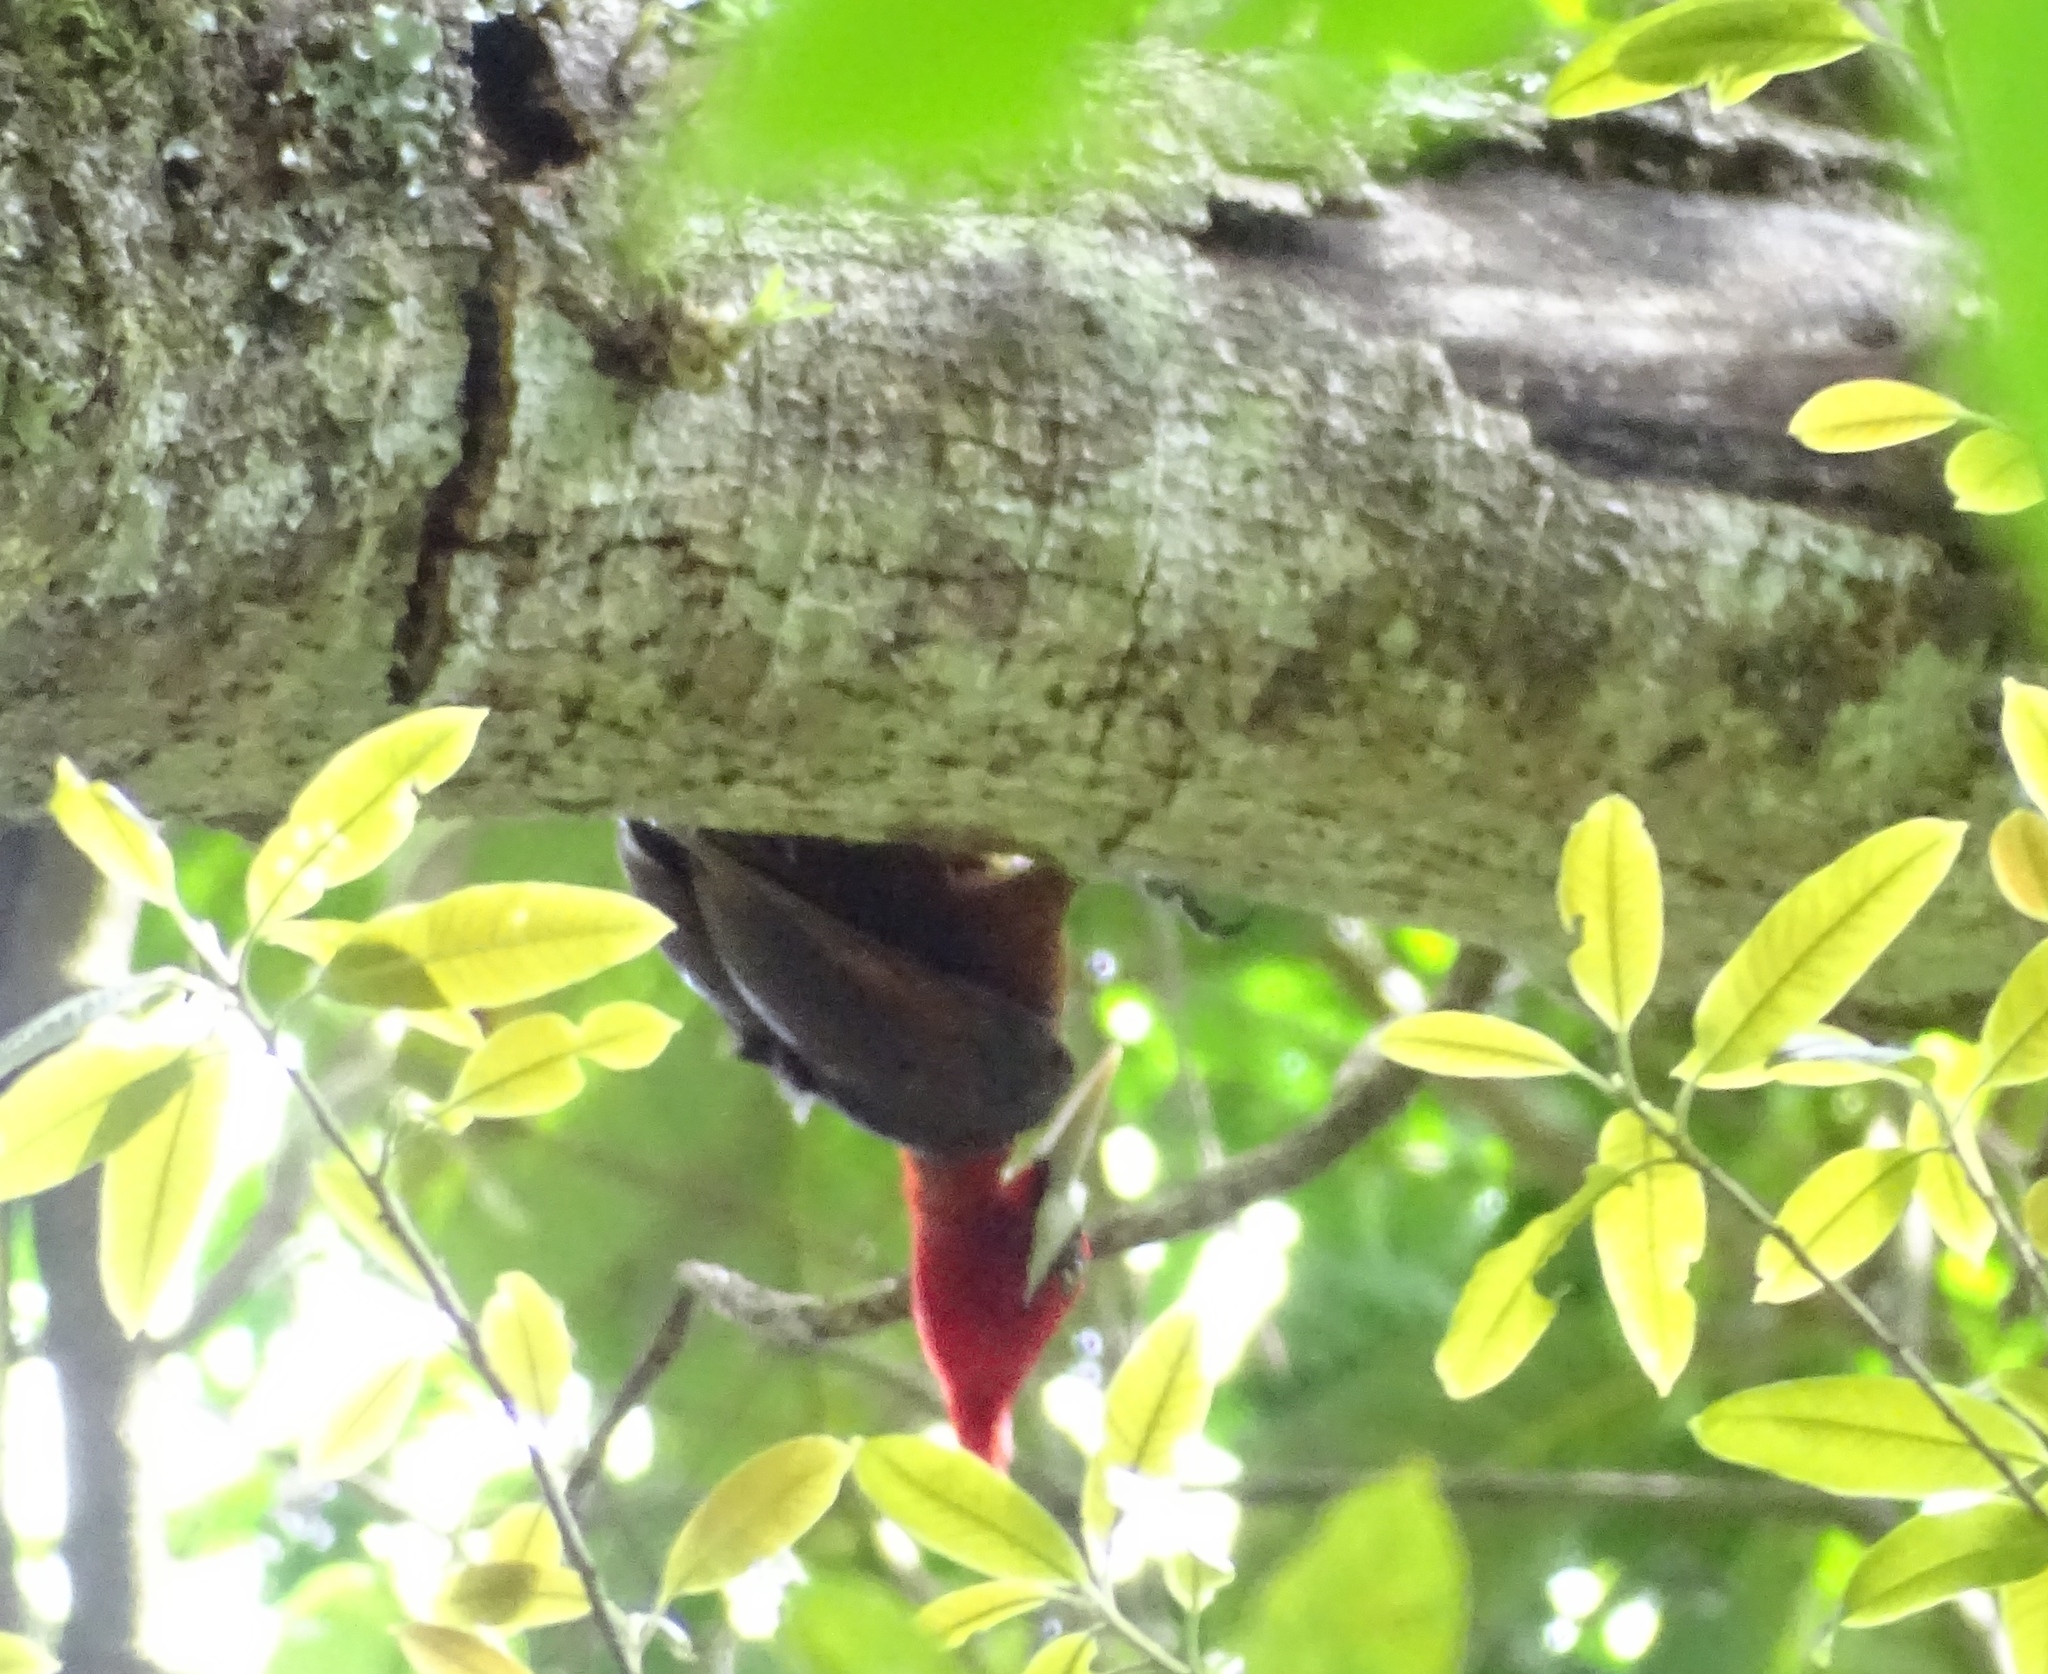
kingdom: Animalia
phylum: Chordata
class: Aves
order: Piciformes
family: Picidae
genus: Campephilus
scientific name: Campephilus rubricollis
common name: Red-necked woodpecker
